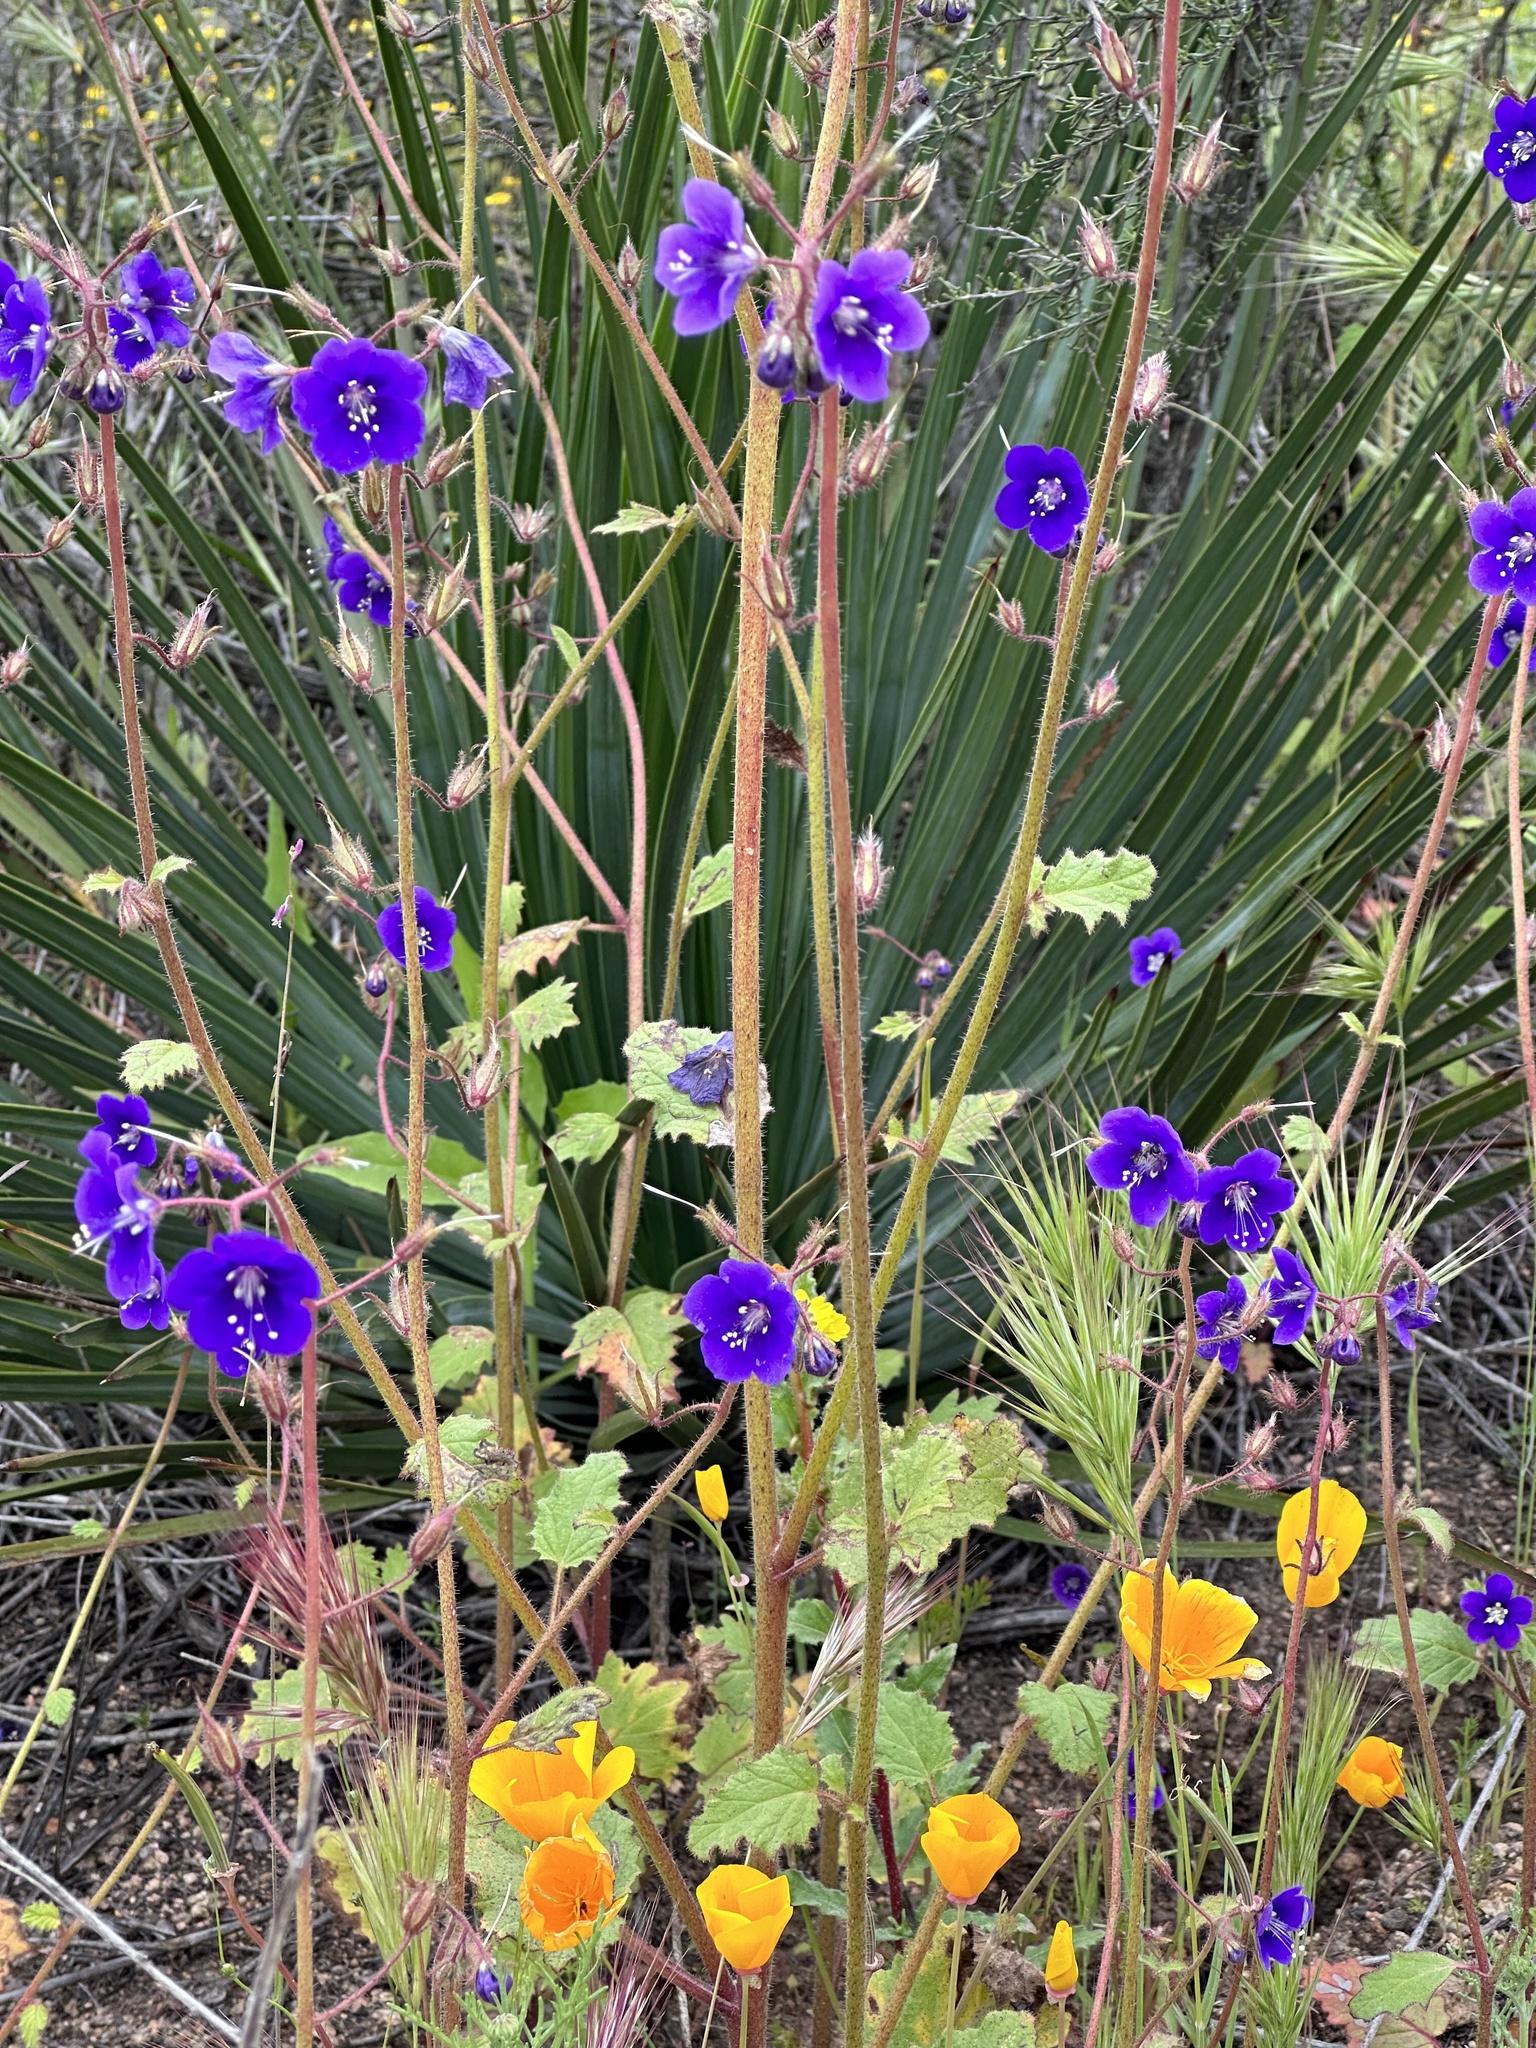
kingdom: Plantae
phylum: Tracheophyta
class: Magnoliopsida
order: Boraginales
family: Hydrophyllaceae
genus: Phacelia
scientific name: Phacelia parryi
